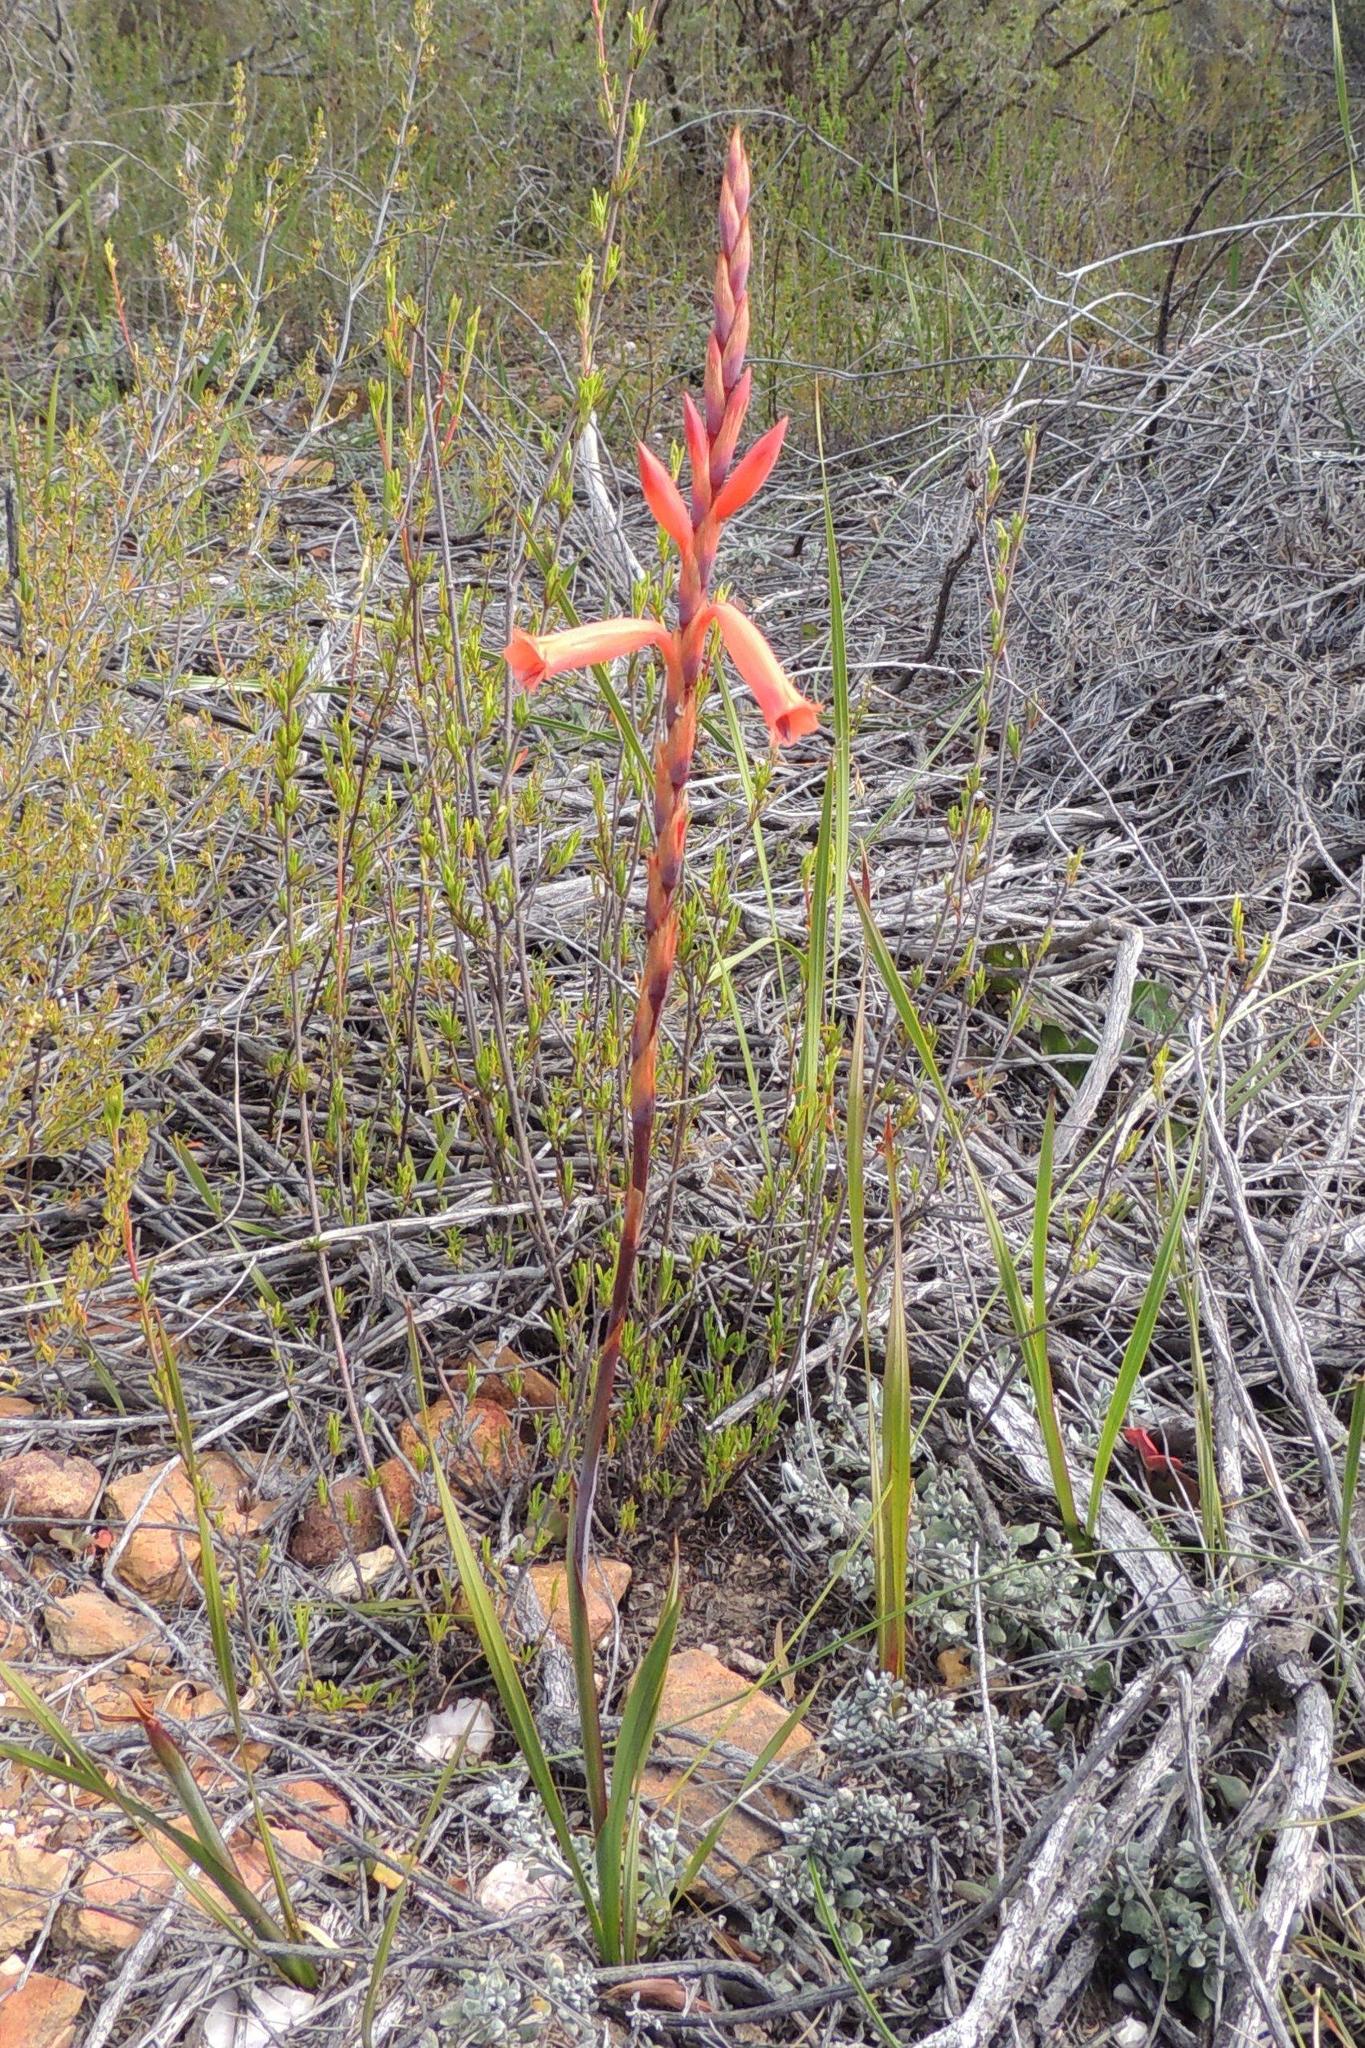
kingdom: Plantae
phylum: Tracheophyta
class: Liliopsida
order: Asparagales
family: Iridaceae
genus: Watsonia
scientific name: Watsonia aletroides
